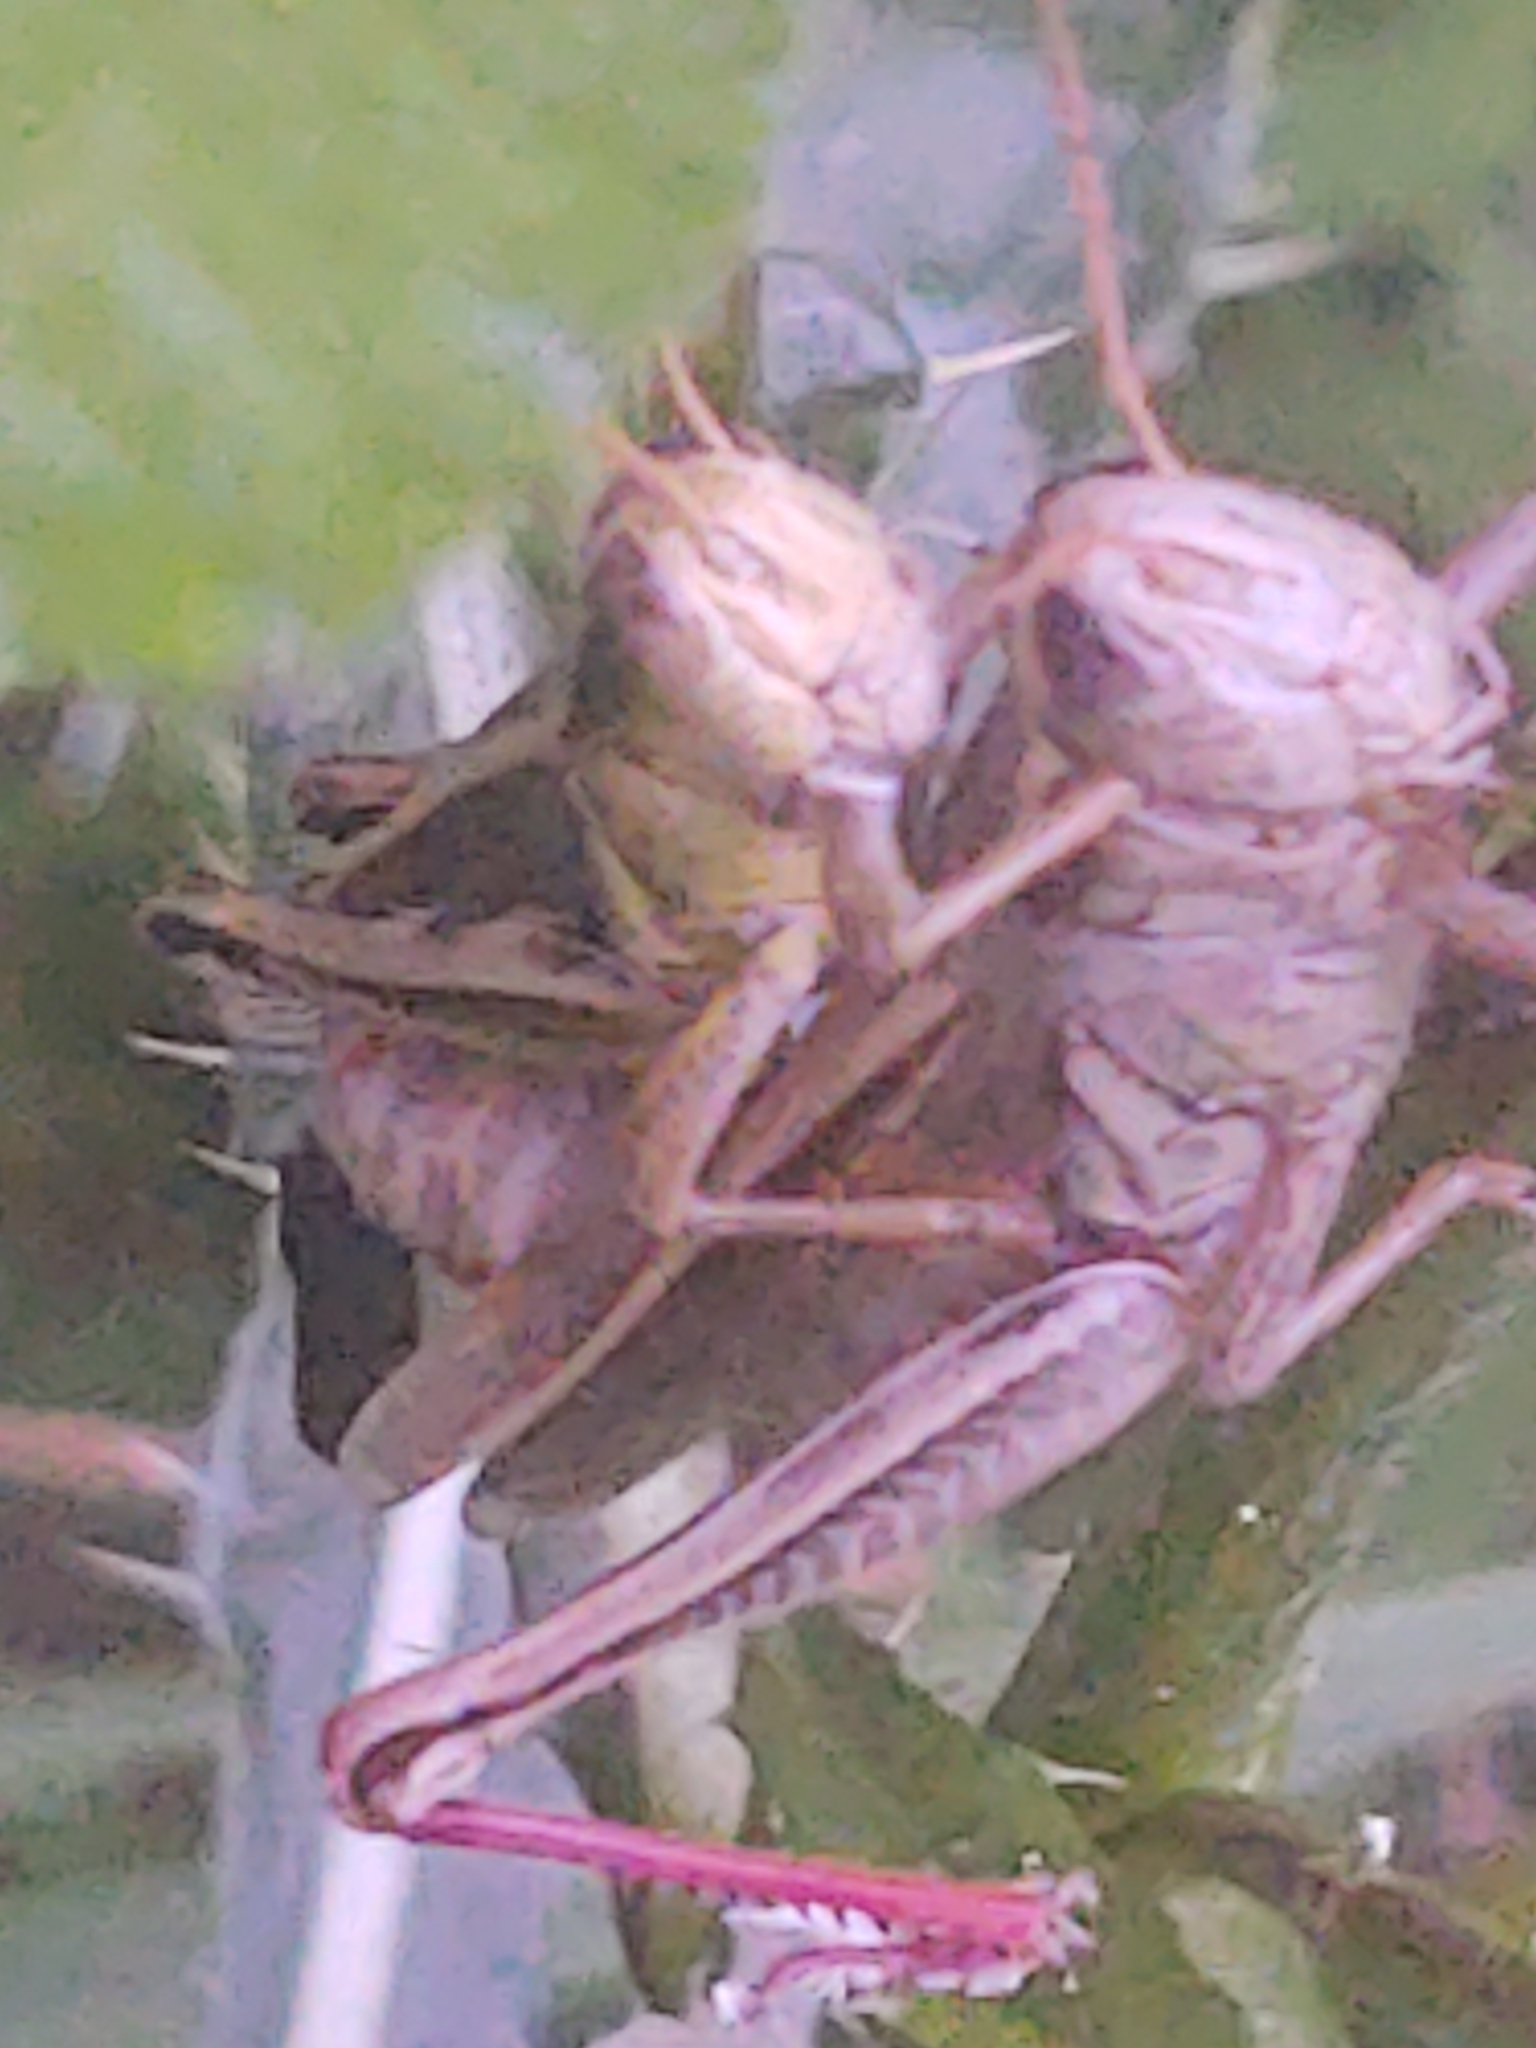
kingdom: Animalia
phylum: Arthropoda
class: Insecta
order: Orthoptera
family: Acrididae
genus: Melanoplus
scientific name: Melanoplus bivittatus
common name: Two-striped grasshopper
